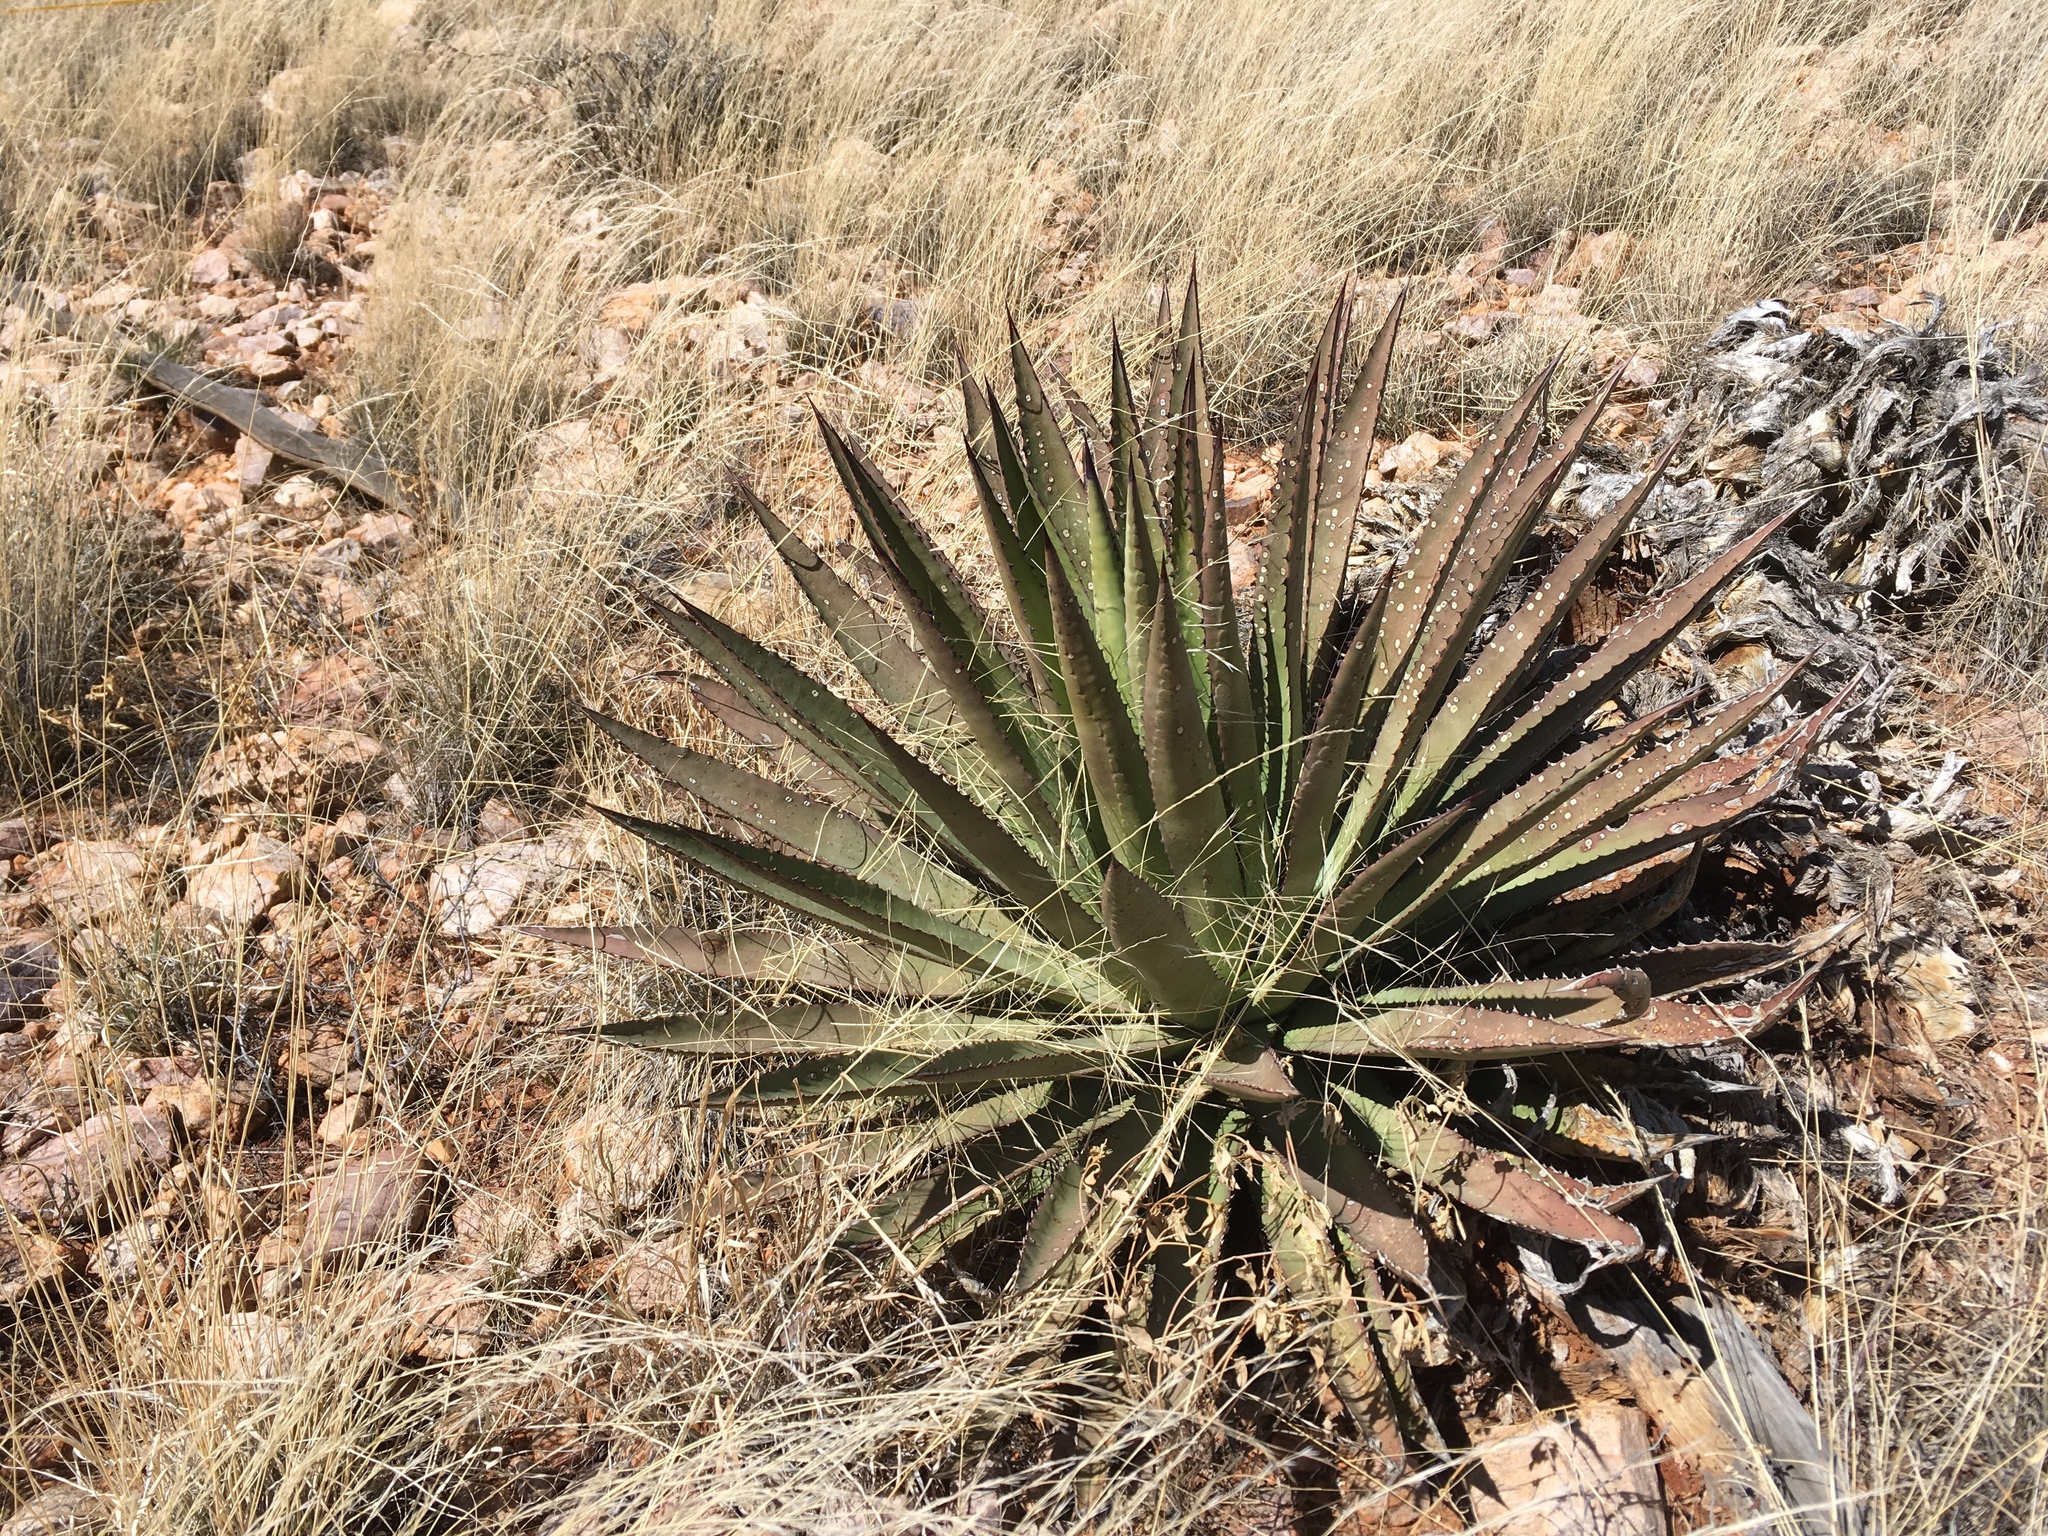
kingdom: Plantae
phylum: Tracheophyta
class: Liliopsida
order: Asparagales
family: Asparagaceae
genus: Agave
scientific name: Agave palmeri
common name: Palmer agave
